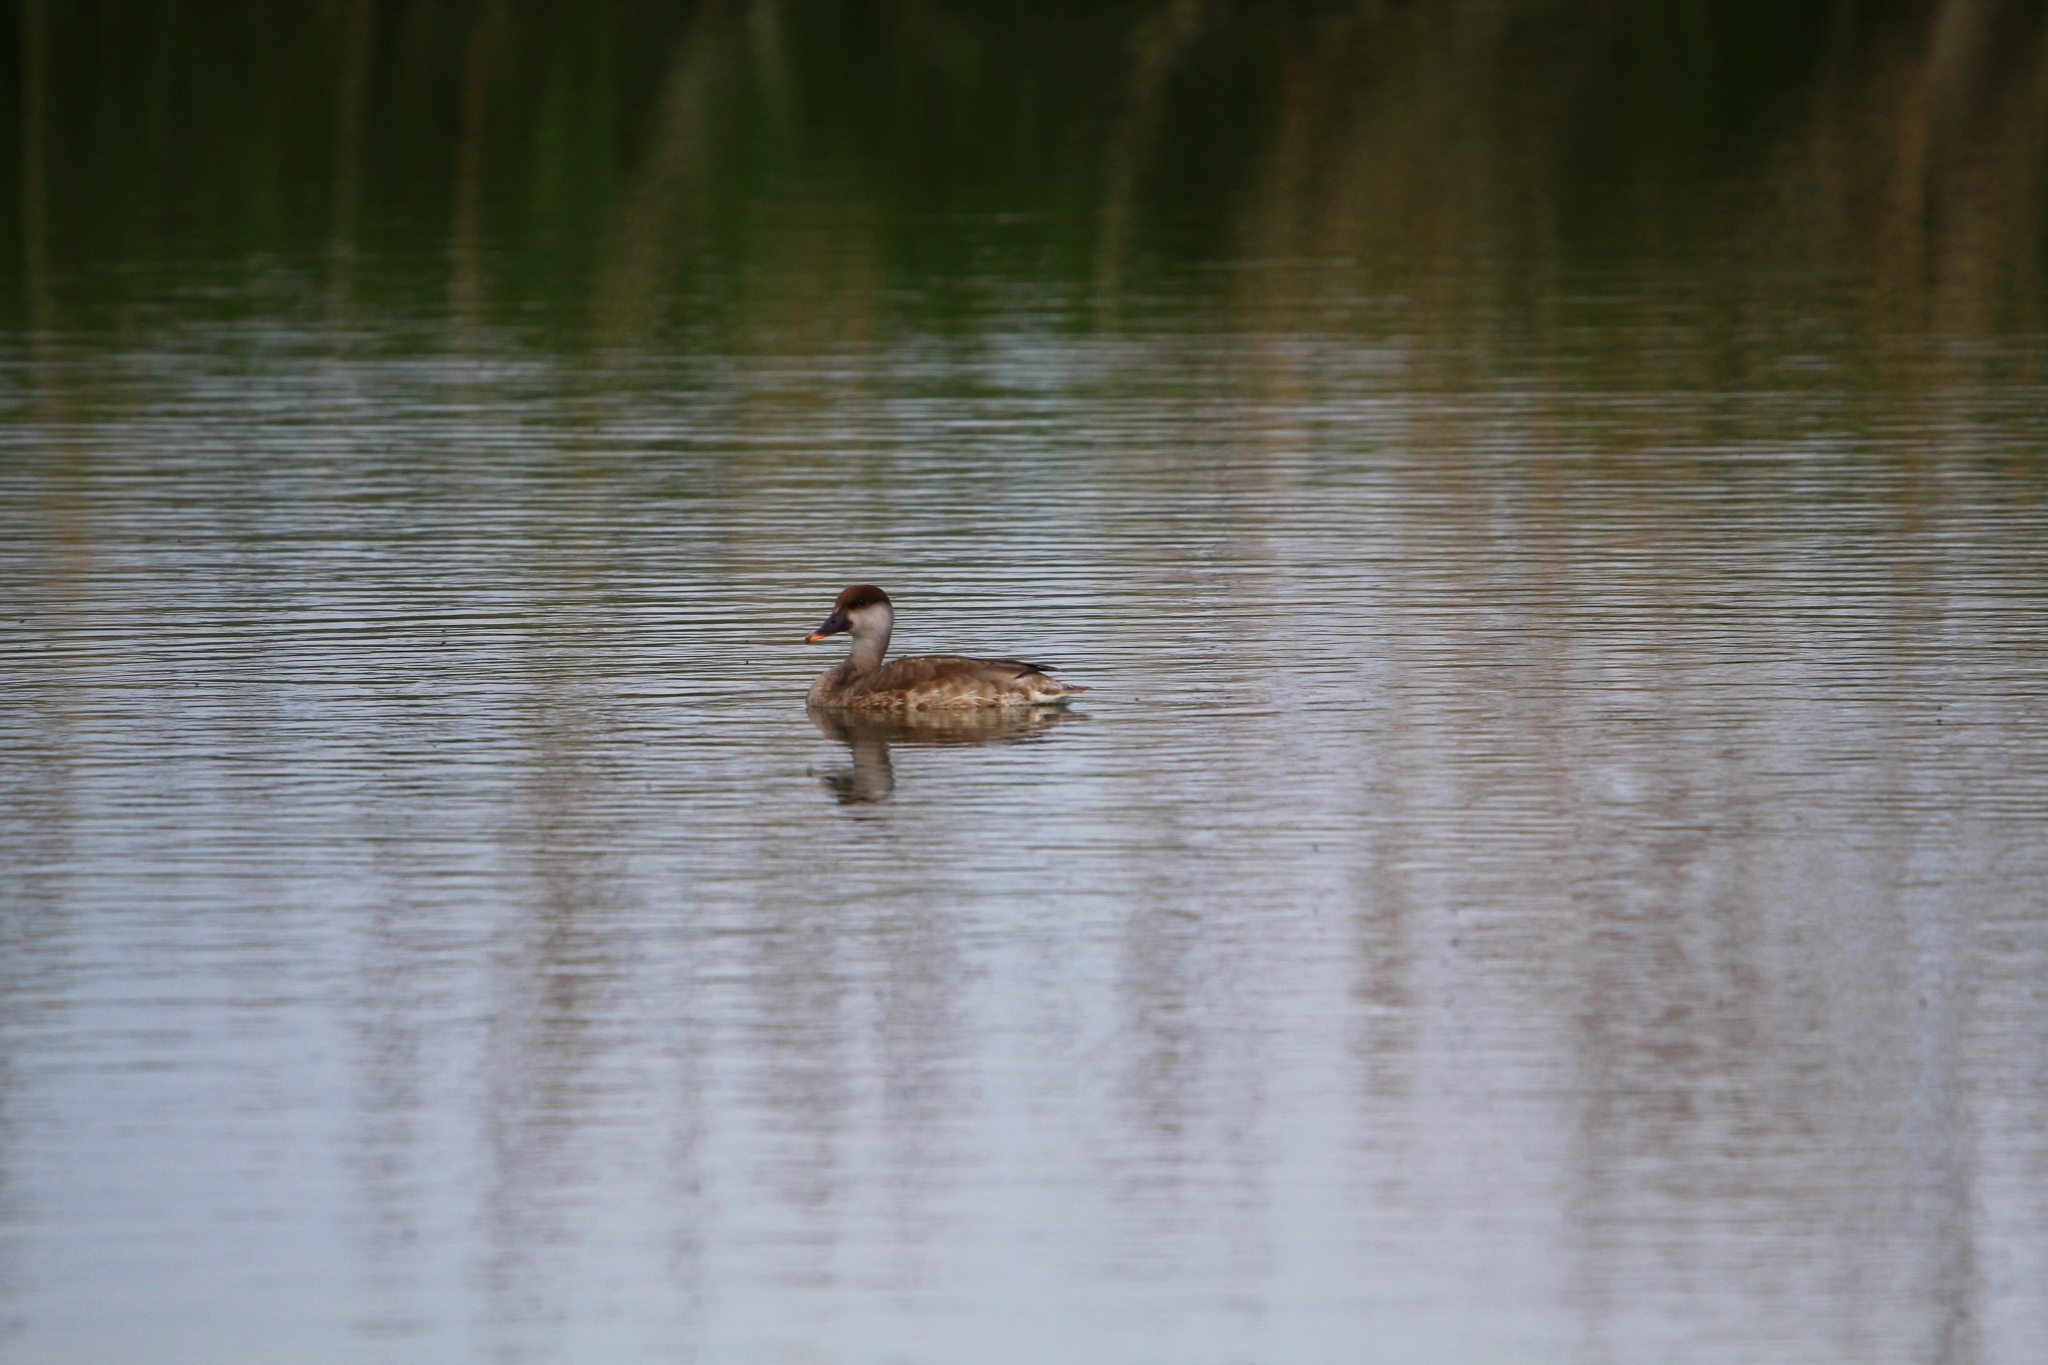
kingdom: Animalia
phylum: Chordata
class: Aves
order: Anseriformes
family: Anatidae
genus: Netta
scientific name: Netta rufina
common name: Red-crested pochard
